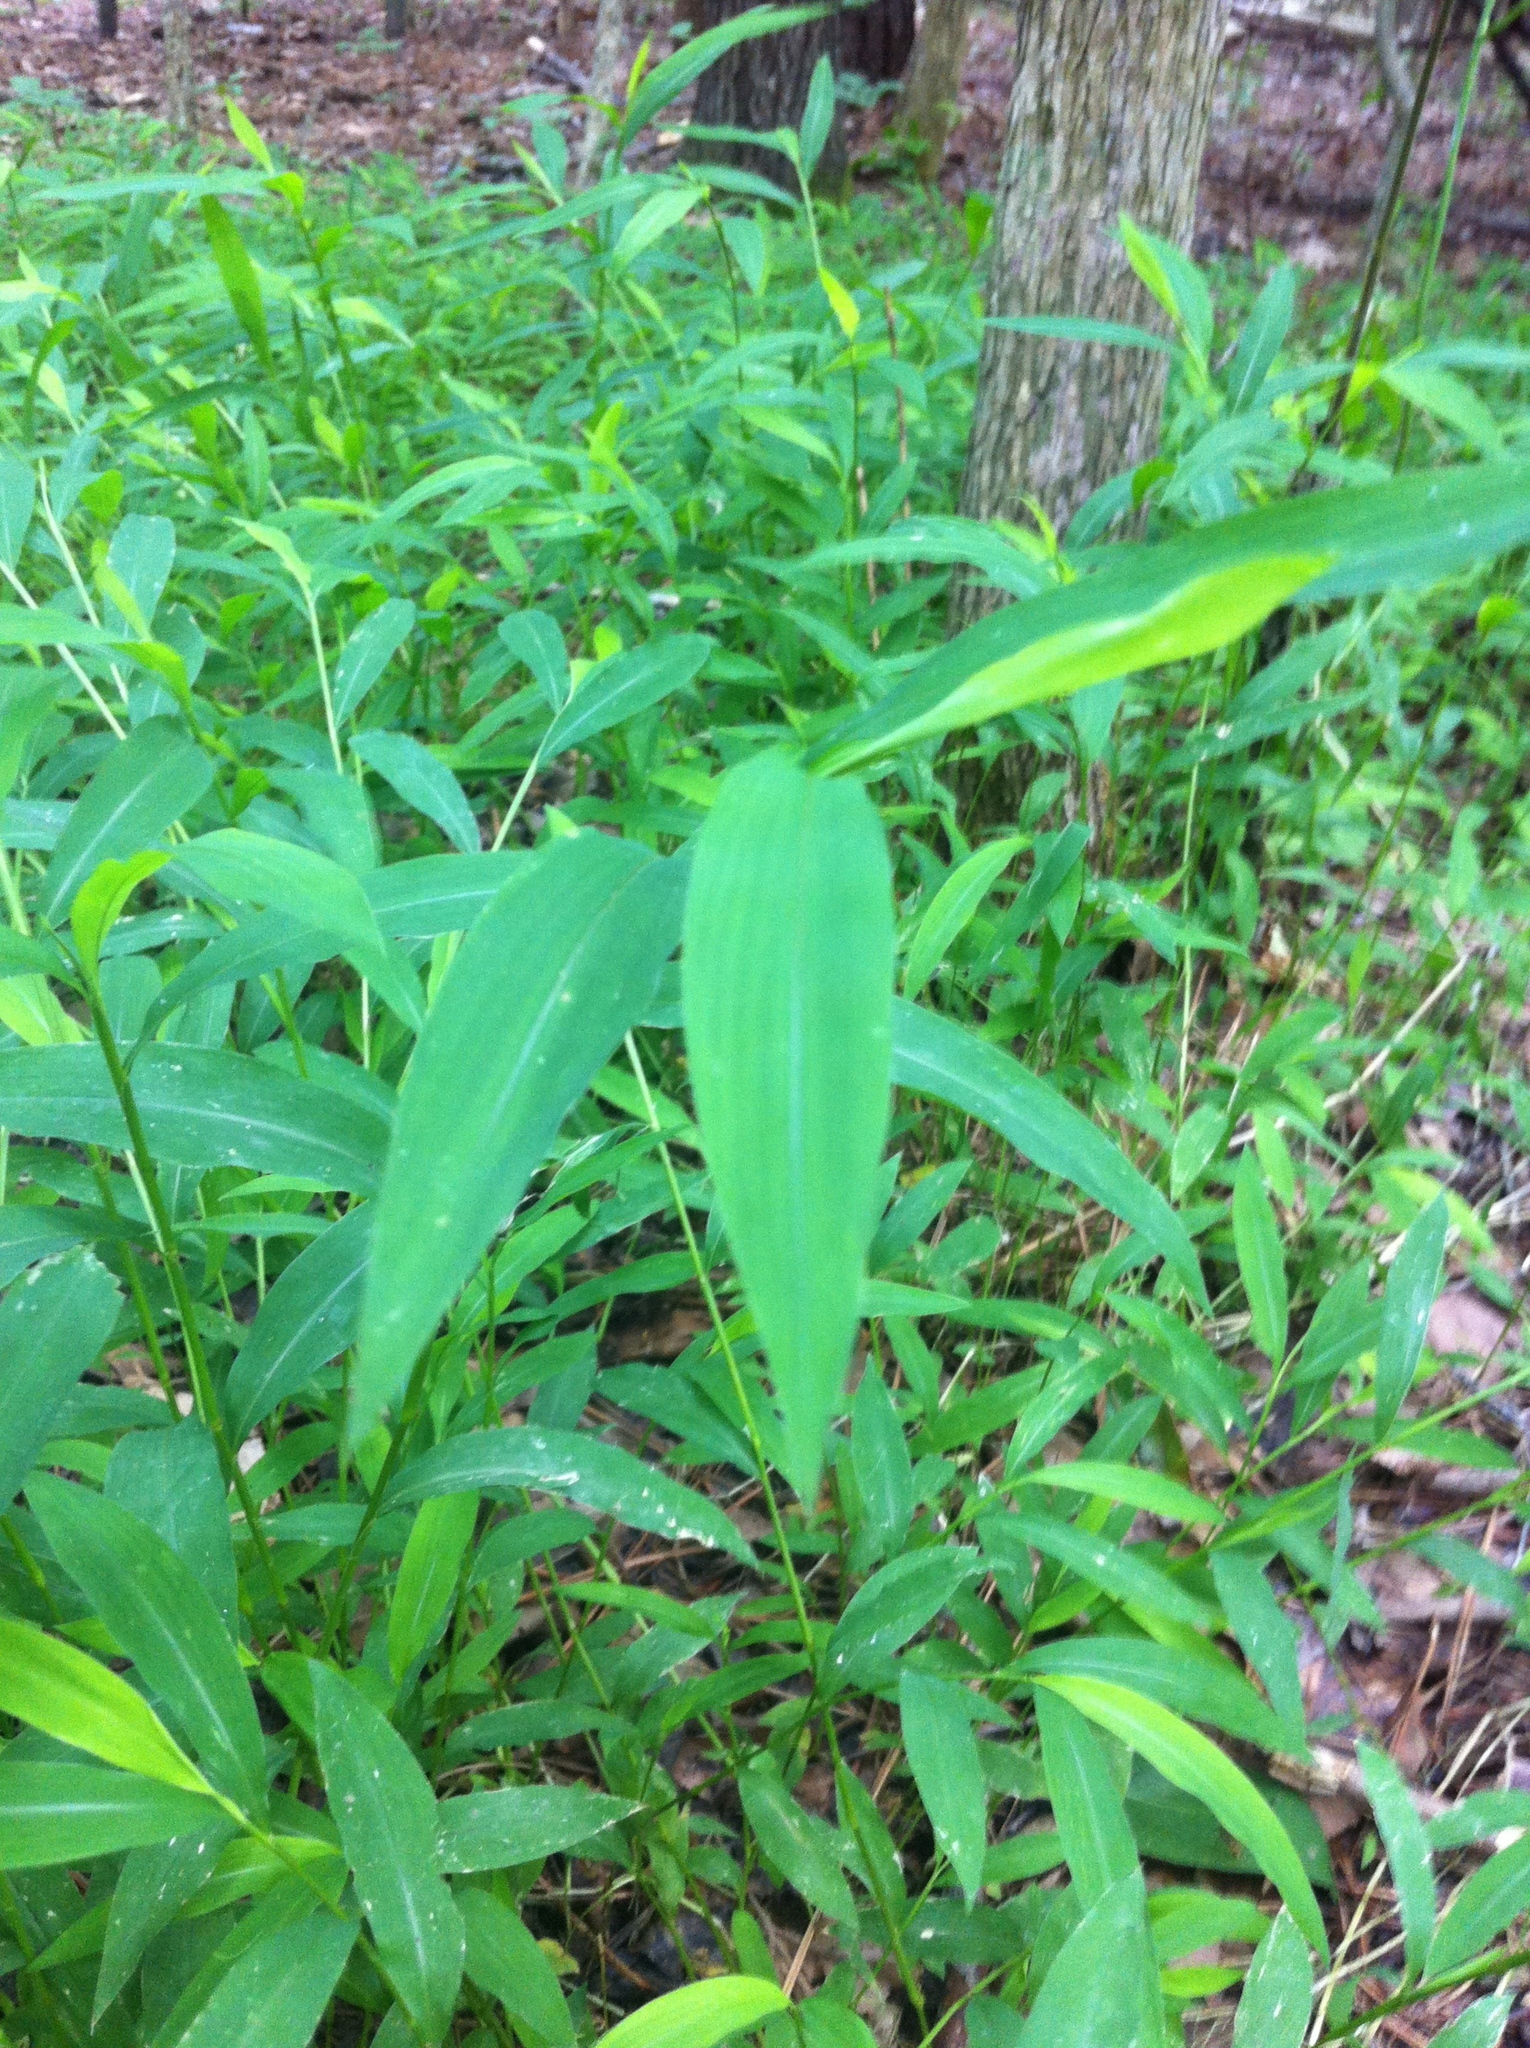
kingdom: Plantae
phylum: Tracheophyta
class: Liliopsida
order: Poales
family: Poaceae
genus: Microstegium
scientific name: Microstegium vimineum
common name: Japanese stiltgrass
